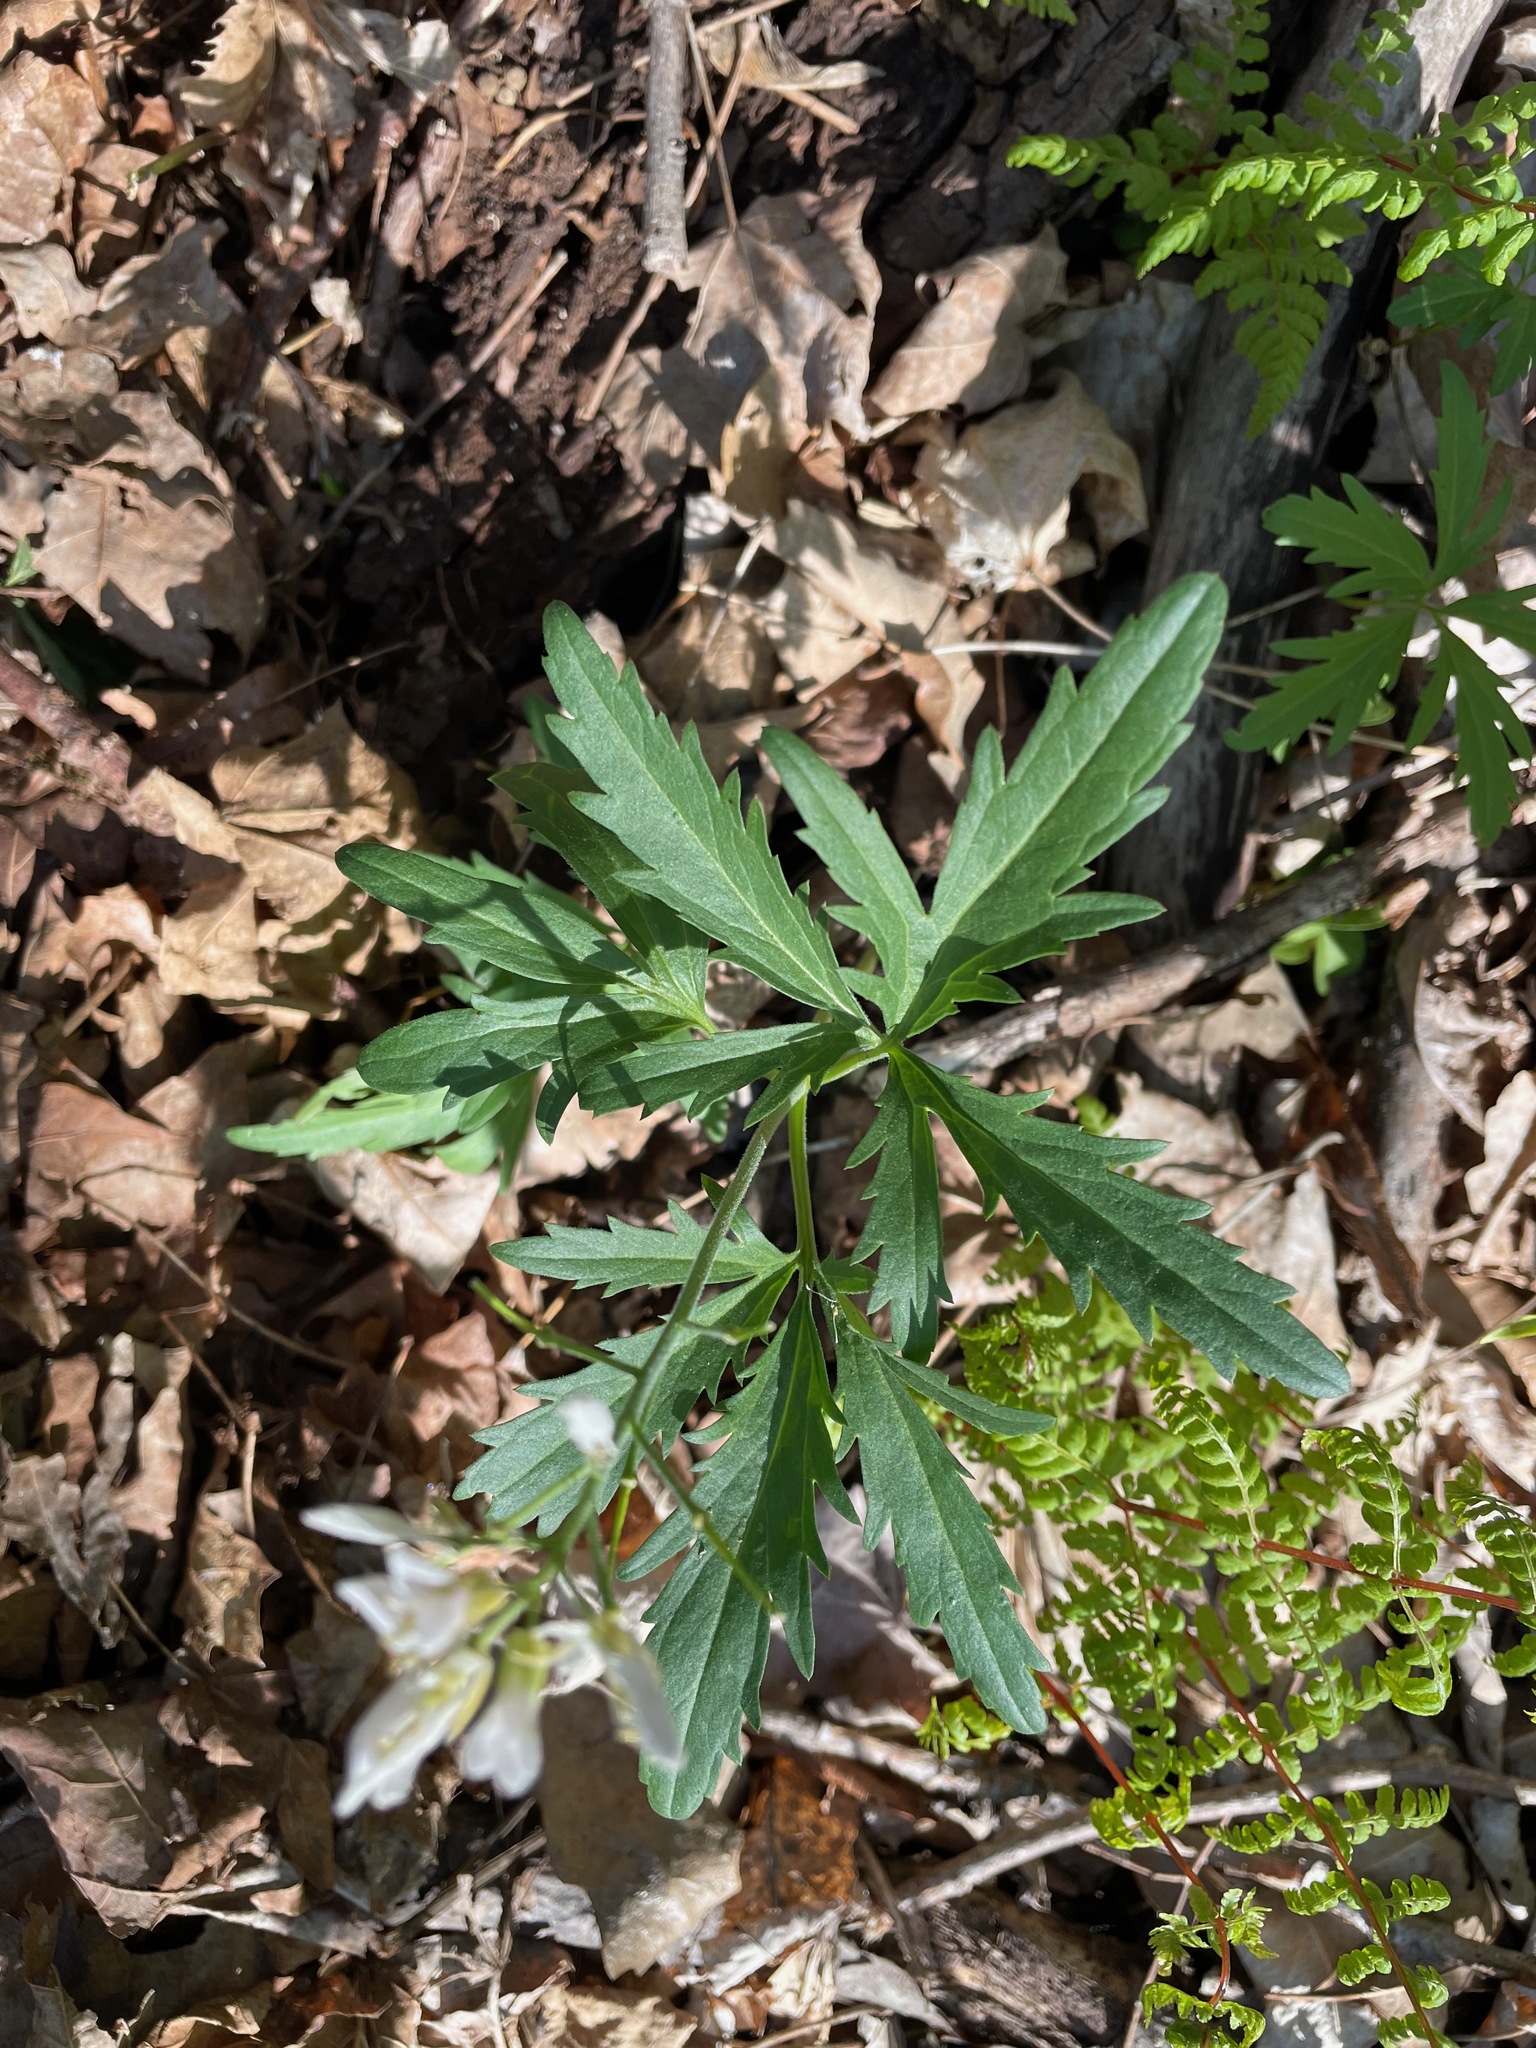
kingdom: Plantae
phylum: Tracheophyta
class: Magnoliopsida
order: Brassicales
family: Brassicaceae
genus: Cardamine
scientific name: Cardamine concatenata
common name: Cut-leaf toothcup
